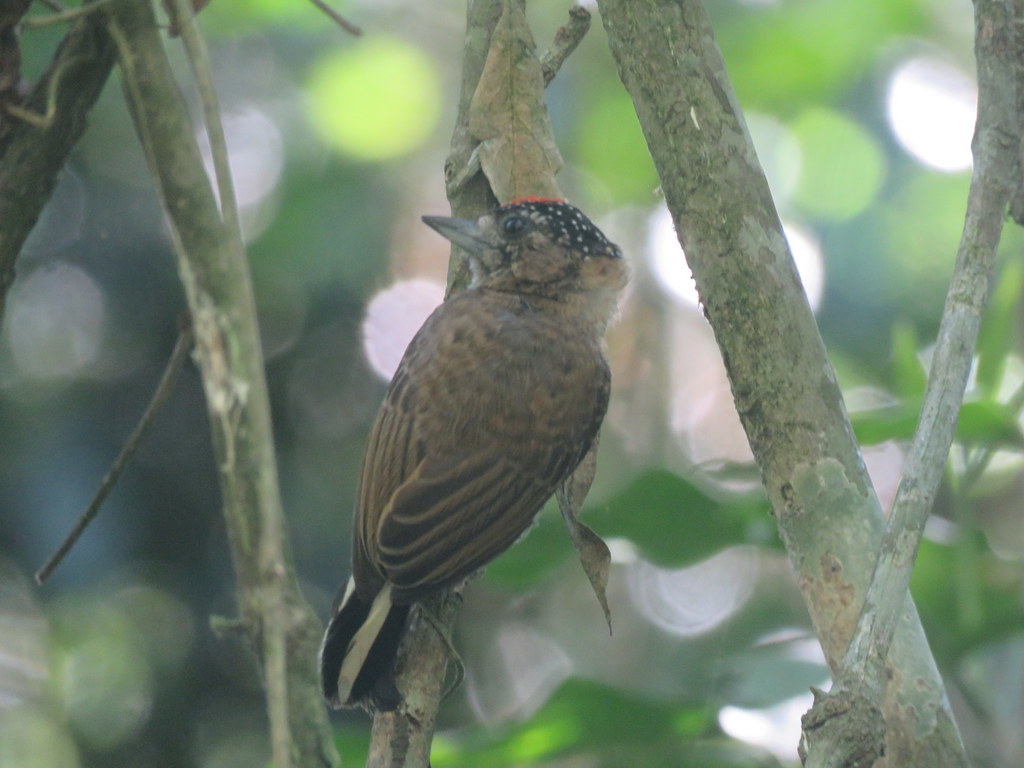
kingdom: Animalia
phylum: Chordata
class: Aves
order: Piciformes
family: Picidae
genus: Picumnus
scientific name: Picumnus temminckii
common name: Ochre-collared piculet
